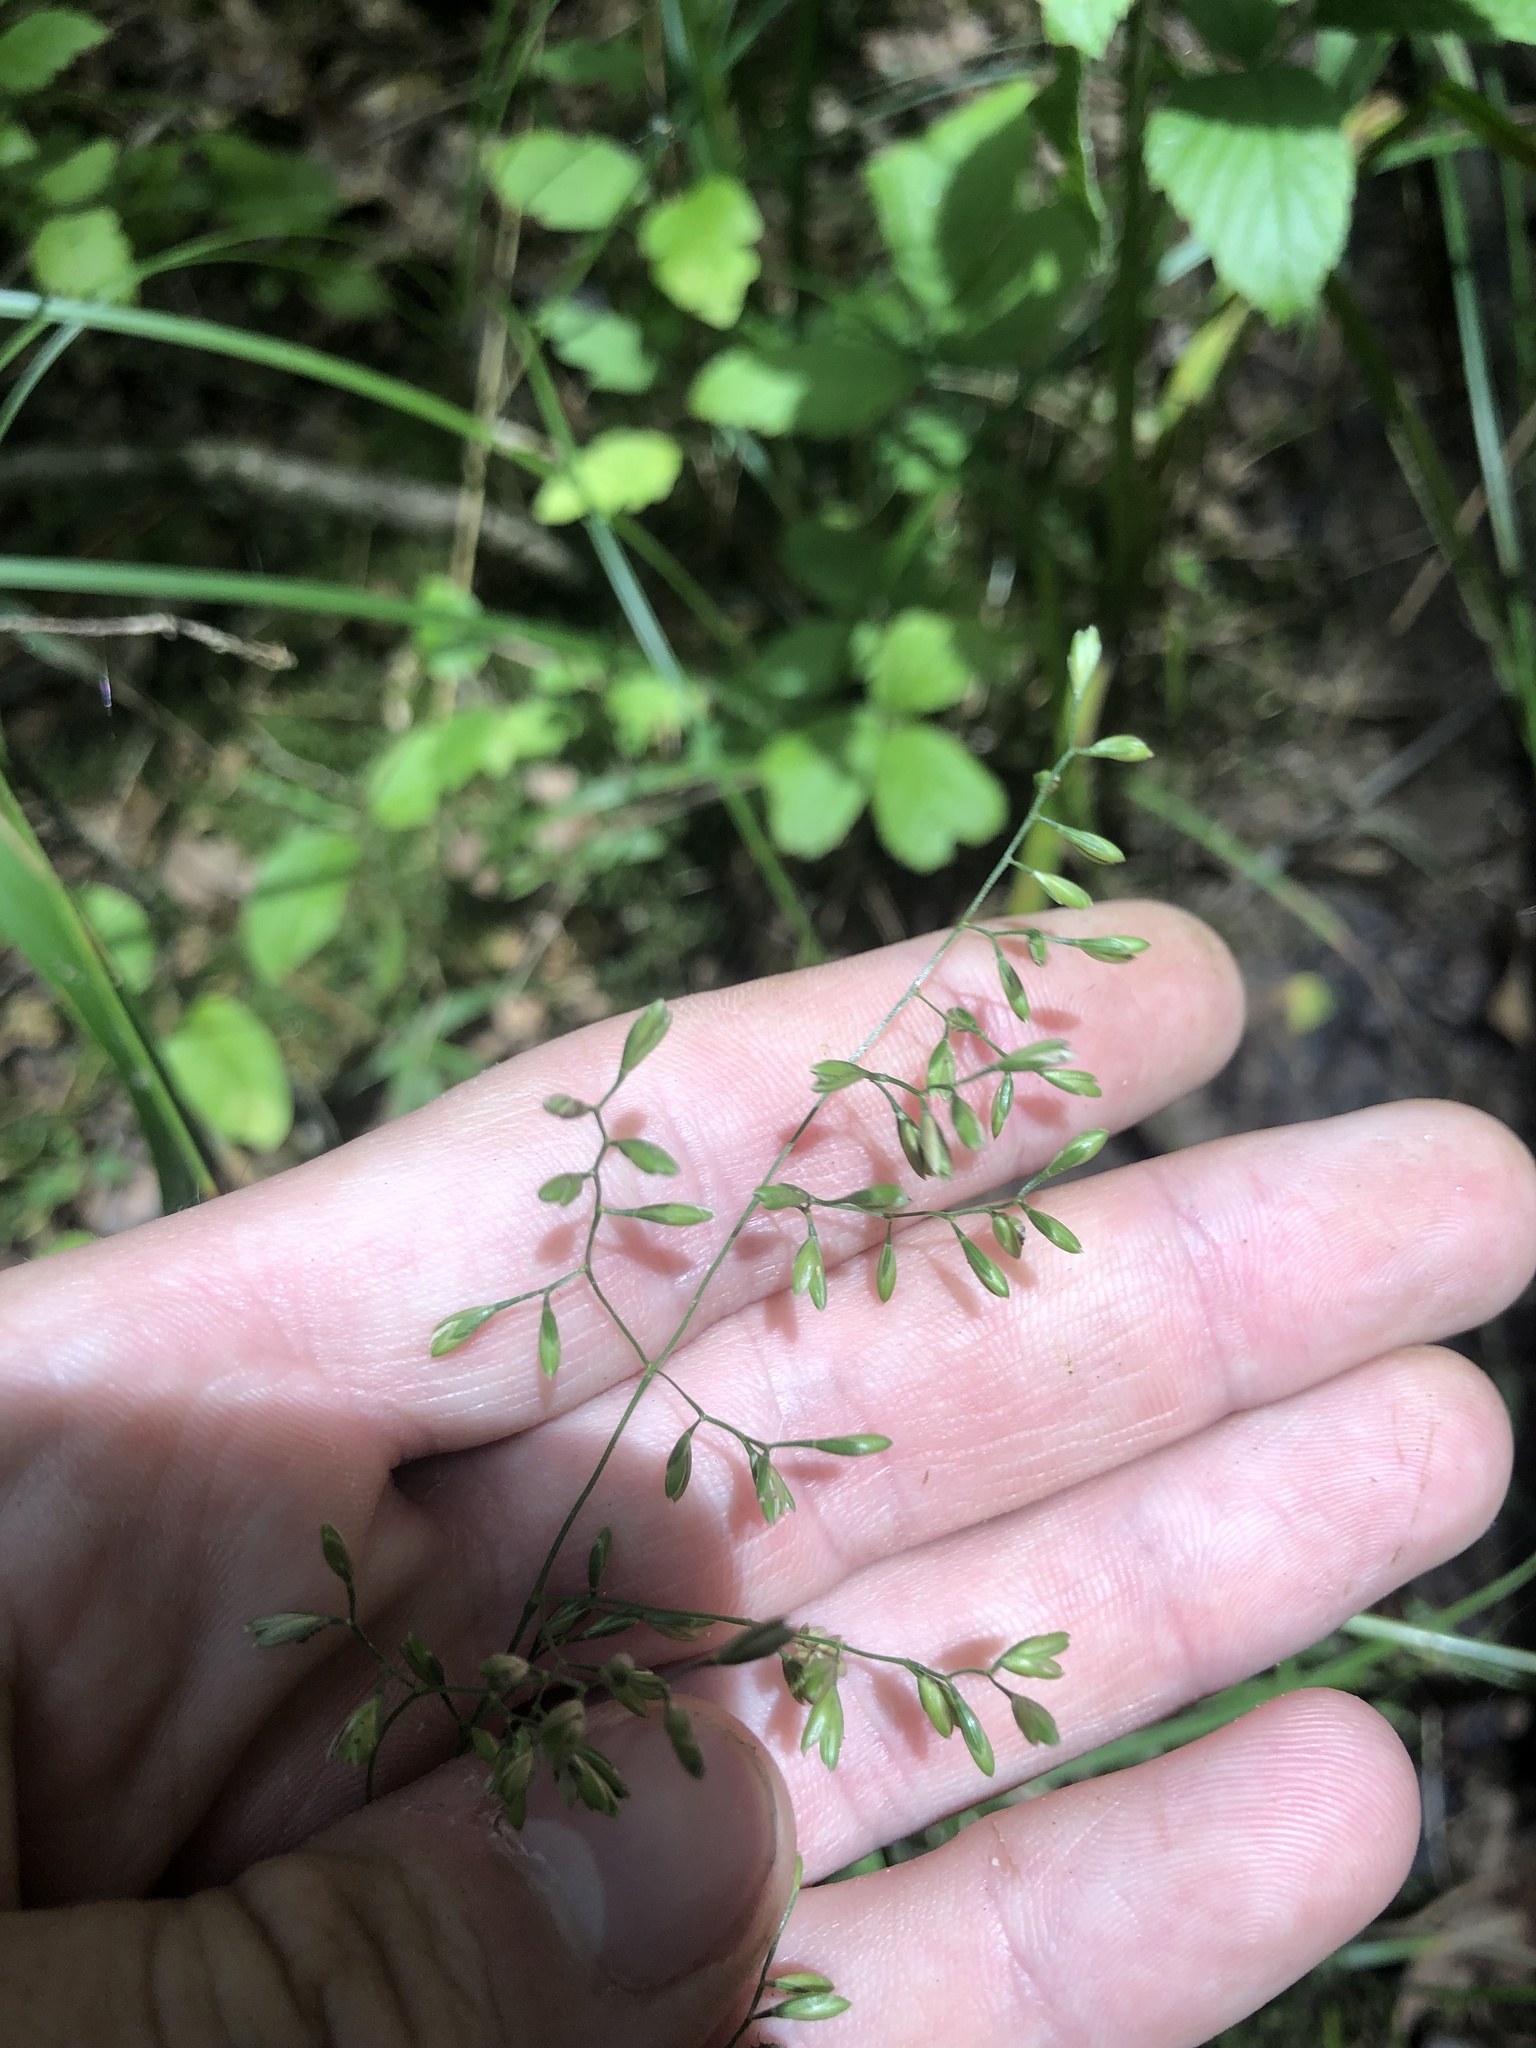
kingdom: Plantae
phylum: Tracheophyta
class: Liliopsida
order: Poales
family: Poaceae
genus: Festuca
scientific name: Festuca paradoxa
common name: Cluster fescue
